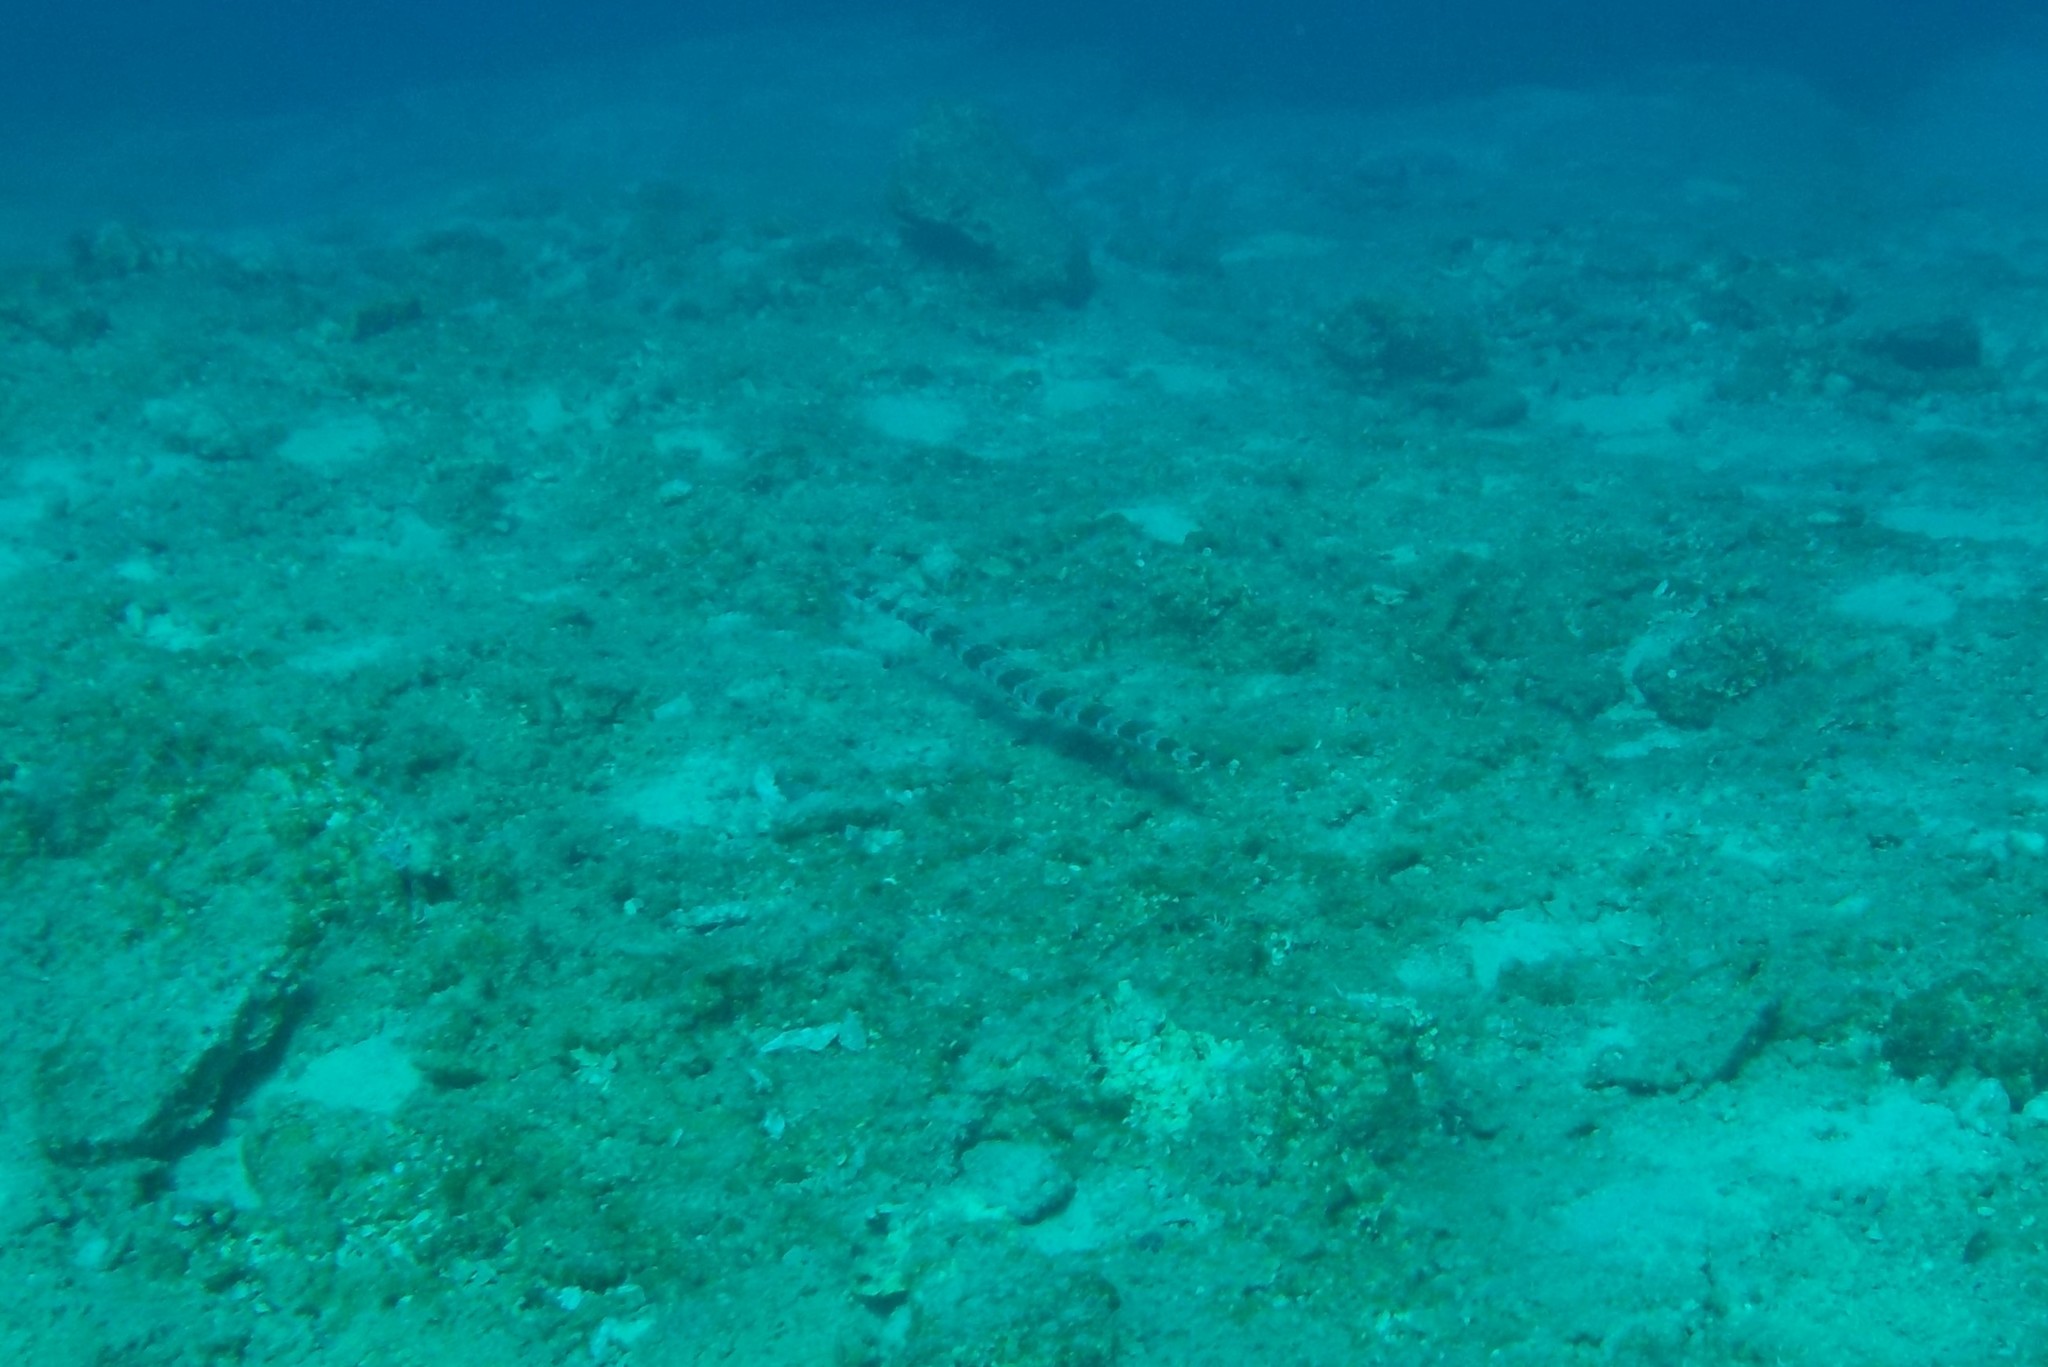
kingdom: Animalia
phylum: Chordata
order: Syngnathiformes
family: Fistulariidae
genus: Fistularia
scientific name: Fistularia commersonii
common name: Bluespotted cornetfish
